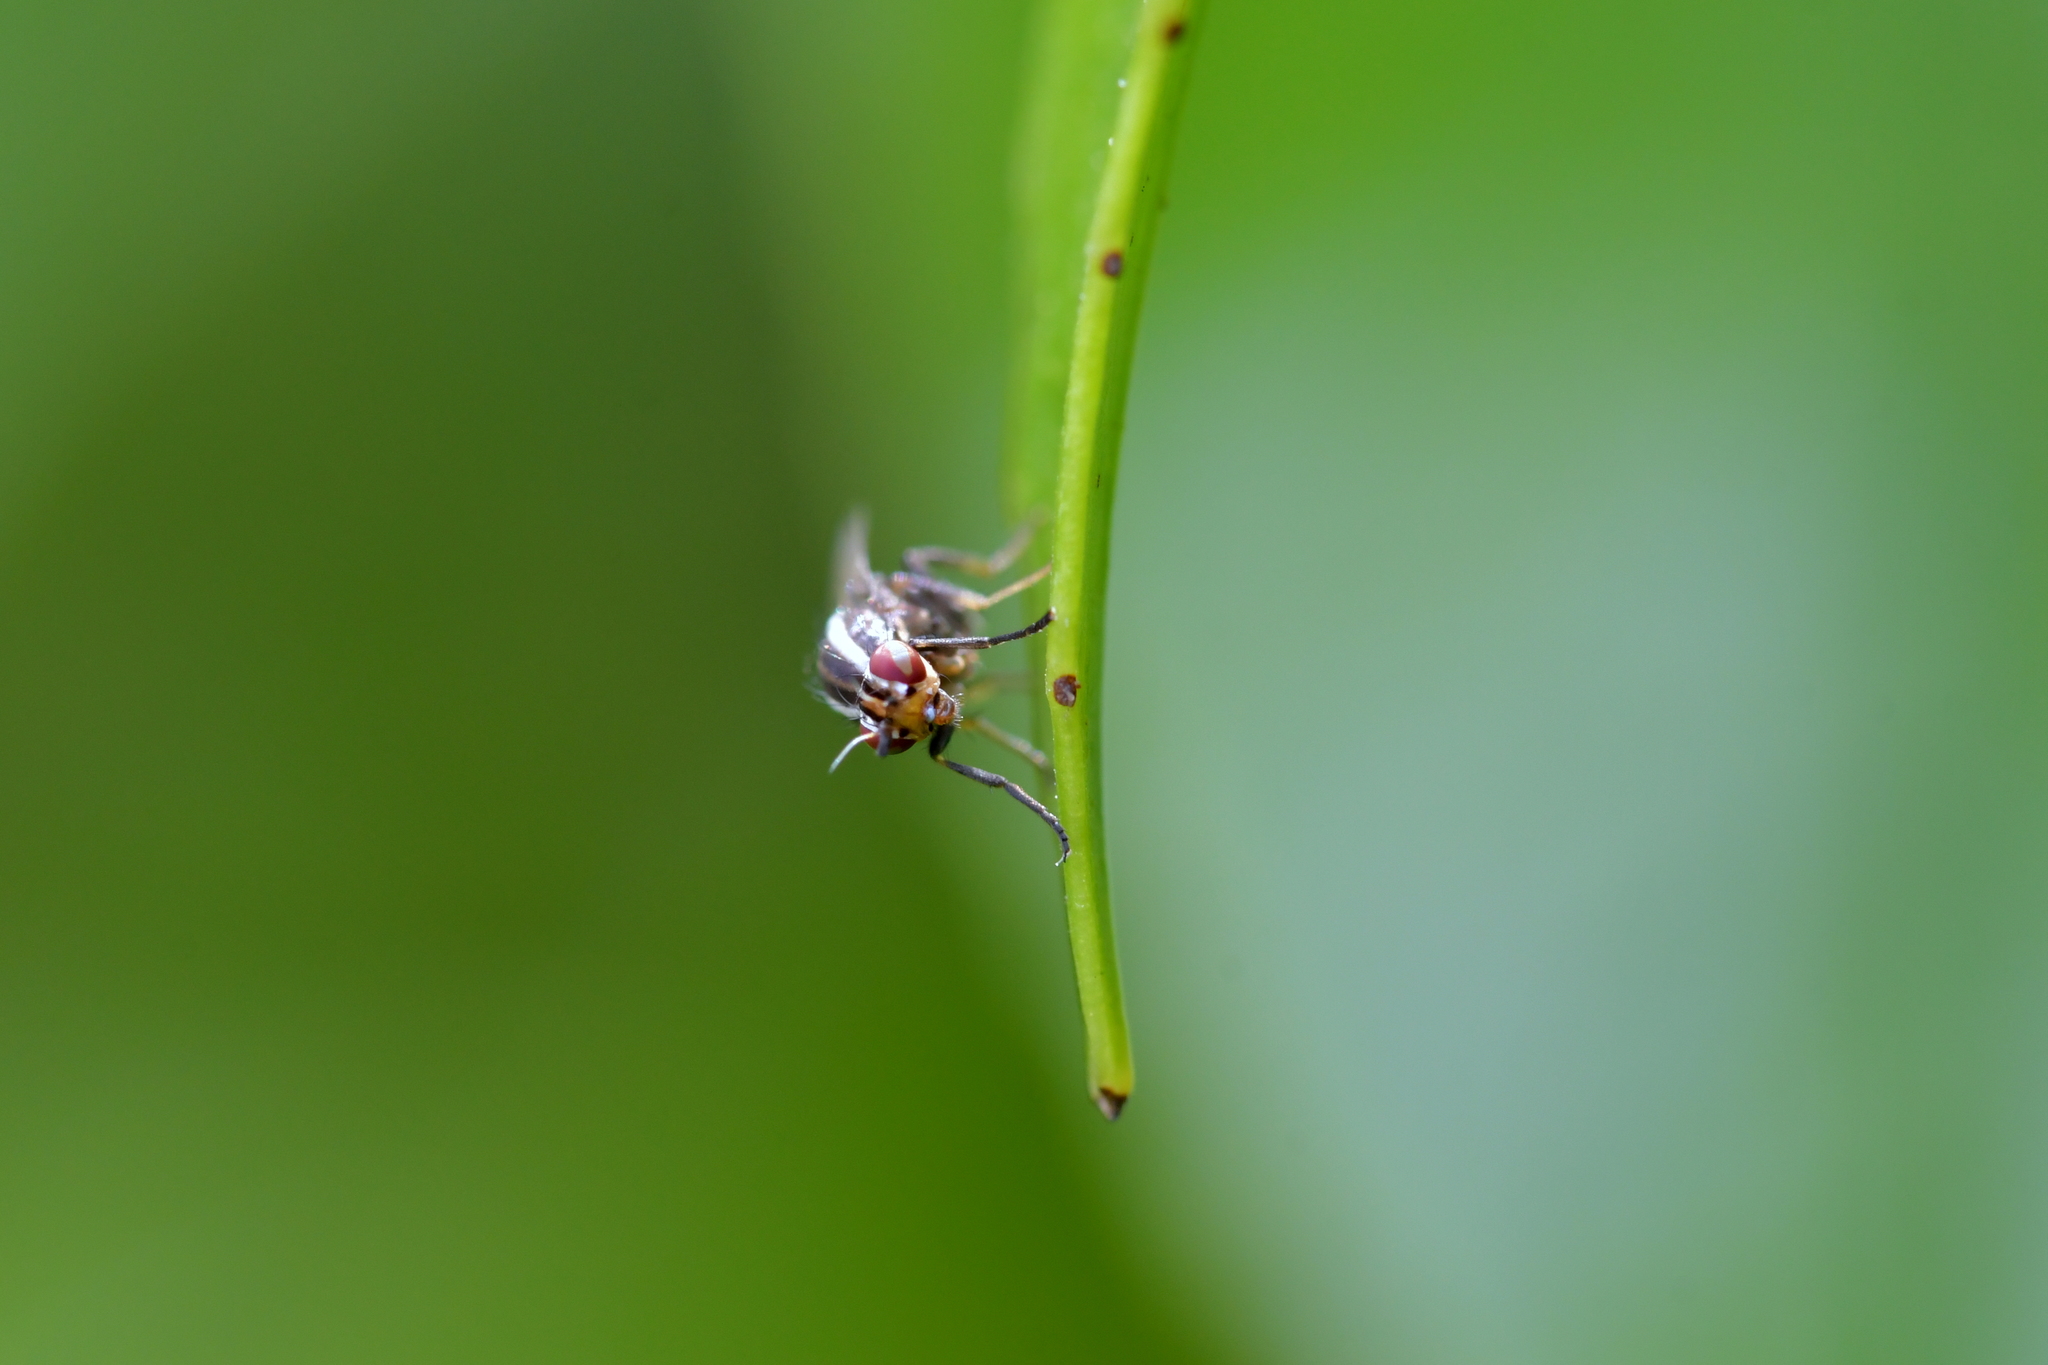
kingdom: Animalia
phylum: Arthropoda
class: Insecta
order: Diptera
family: Lauxaniidae
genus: Poecilohetaerella
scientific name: Poecilohetaerella dubiosa
